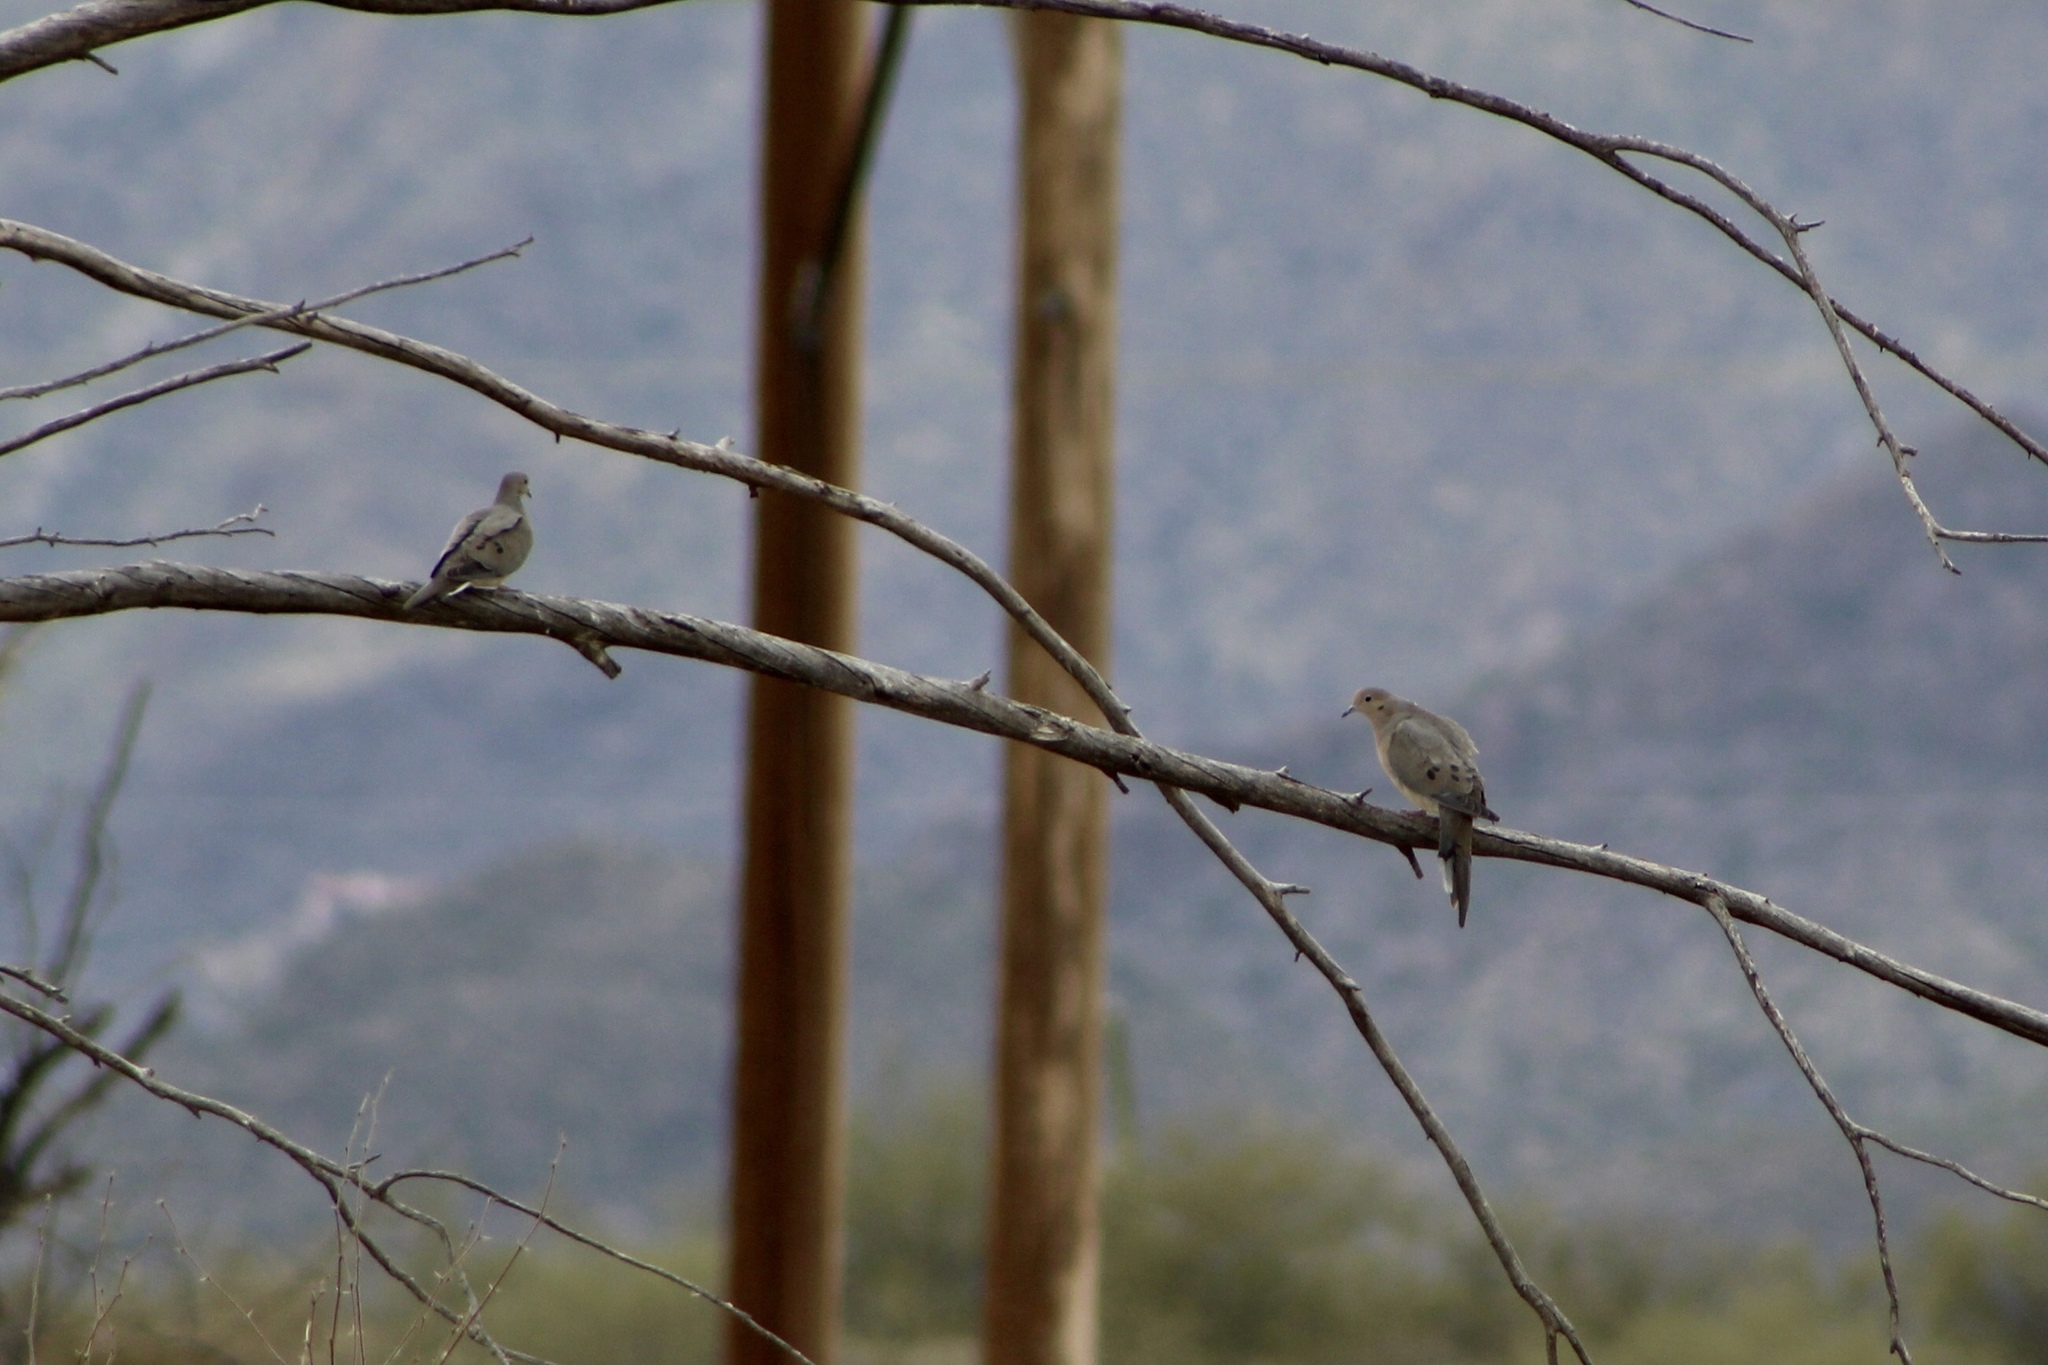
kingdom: Animalia
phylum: Chordata
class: Aves
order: Columbiformes
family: Columbidae
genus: Zenaida
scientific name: Zenaida macroura
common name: Mourning dove
